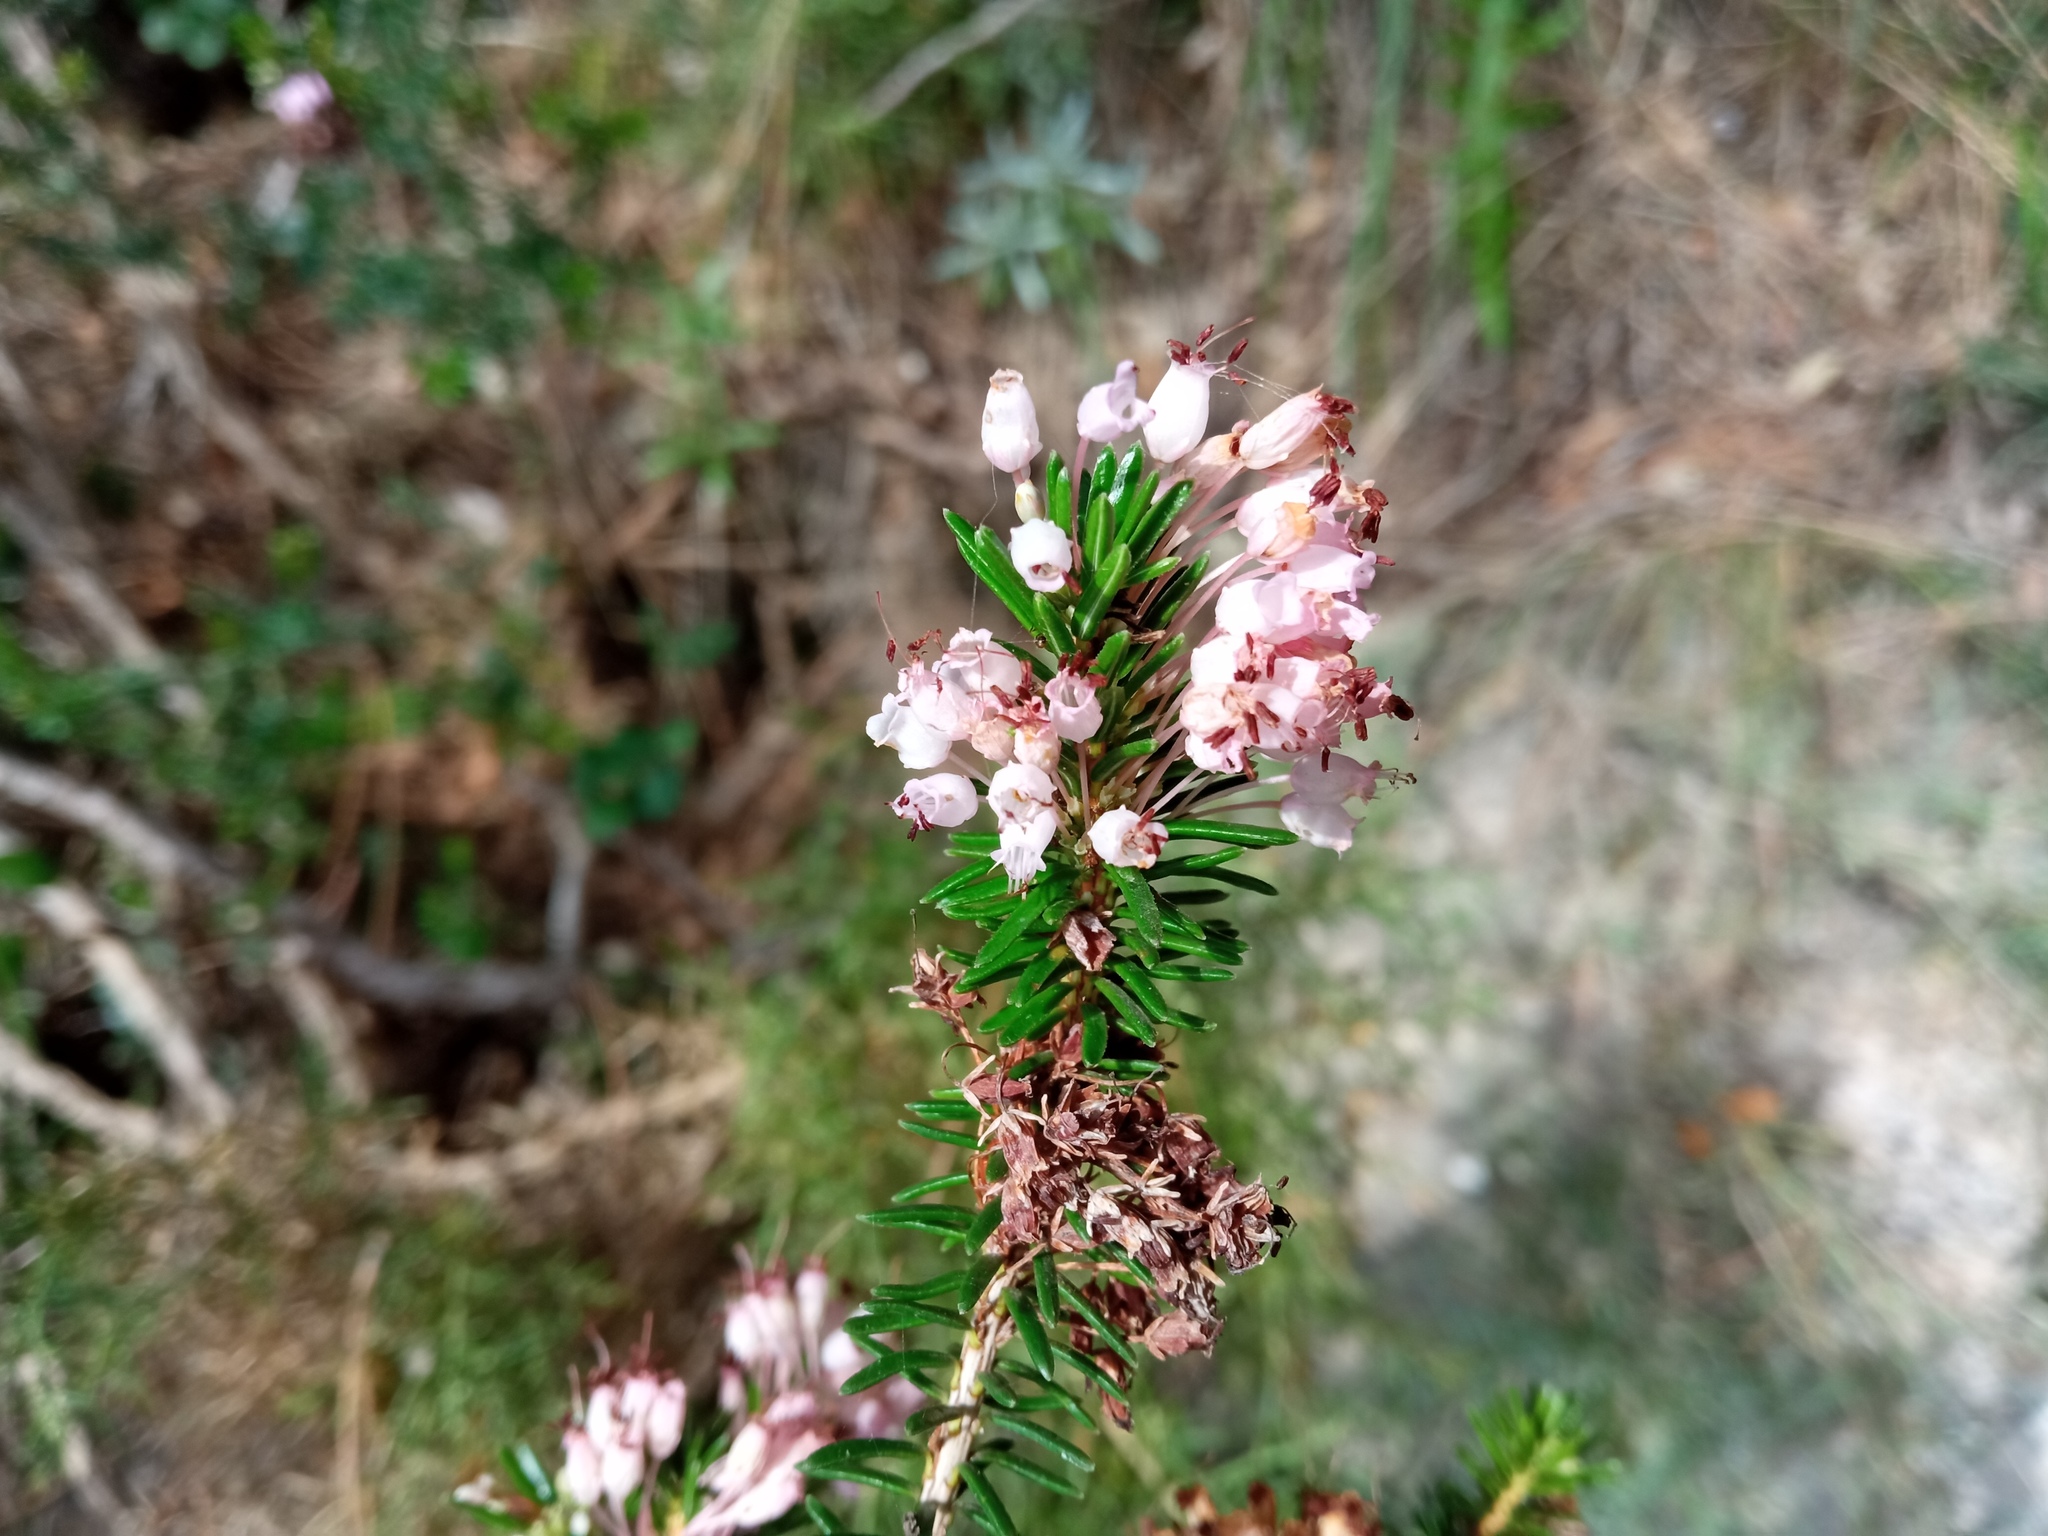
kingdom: Plantae
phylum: Tracheophyta
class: Magnoliopsida
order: Ericales
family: Ericaceae
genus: Erica
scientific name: Erica multiflora
